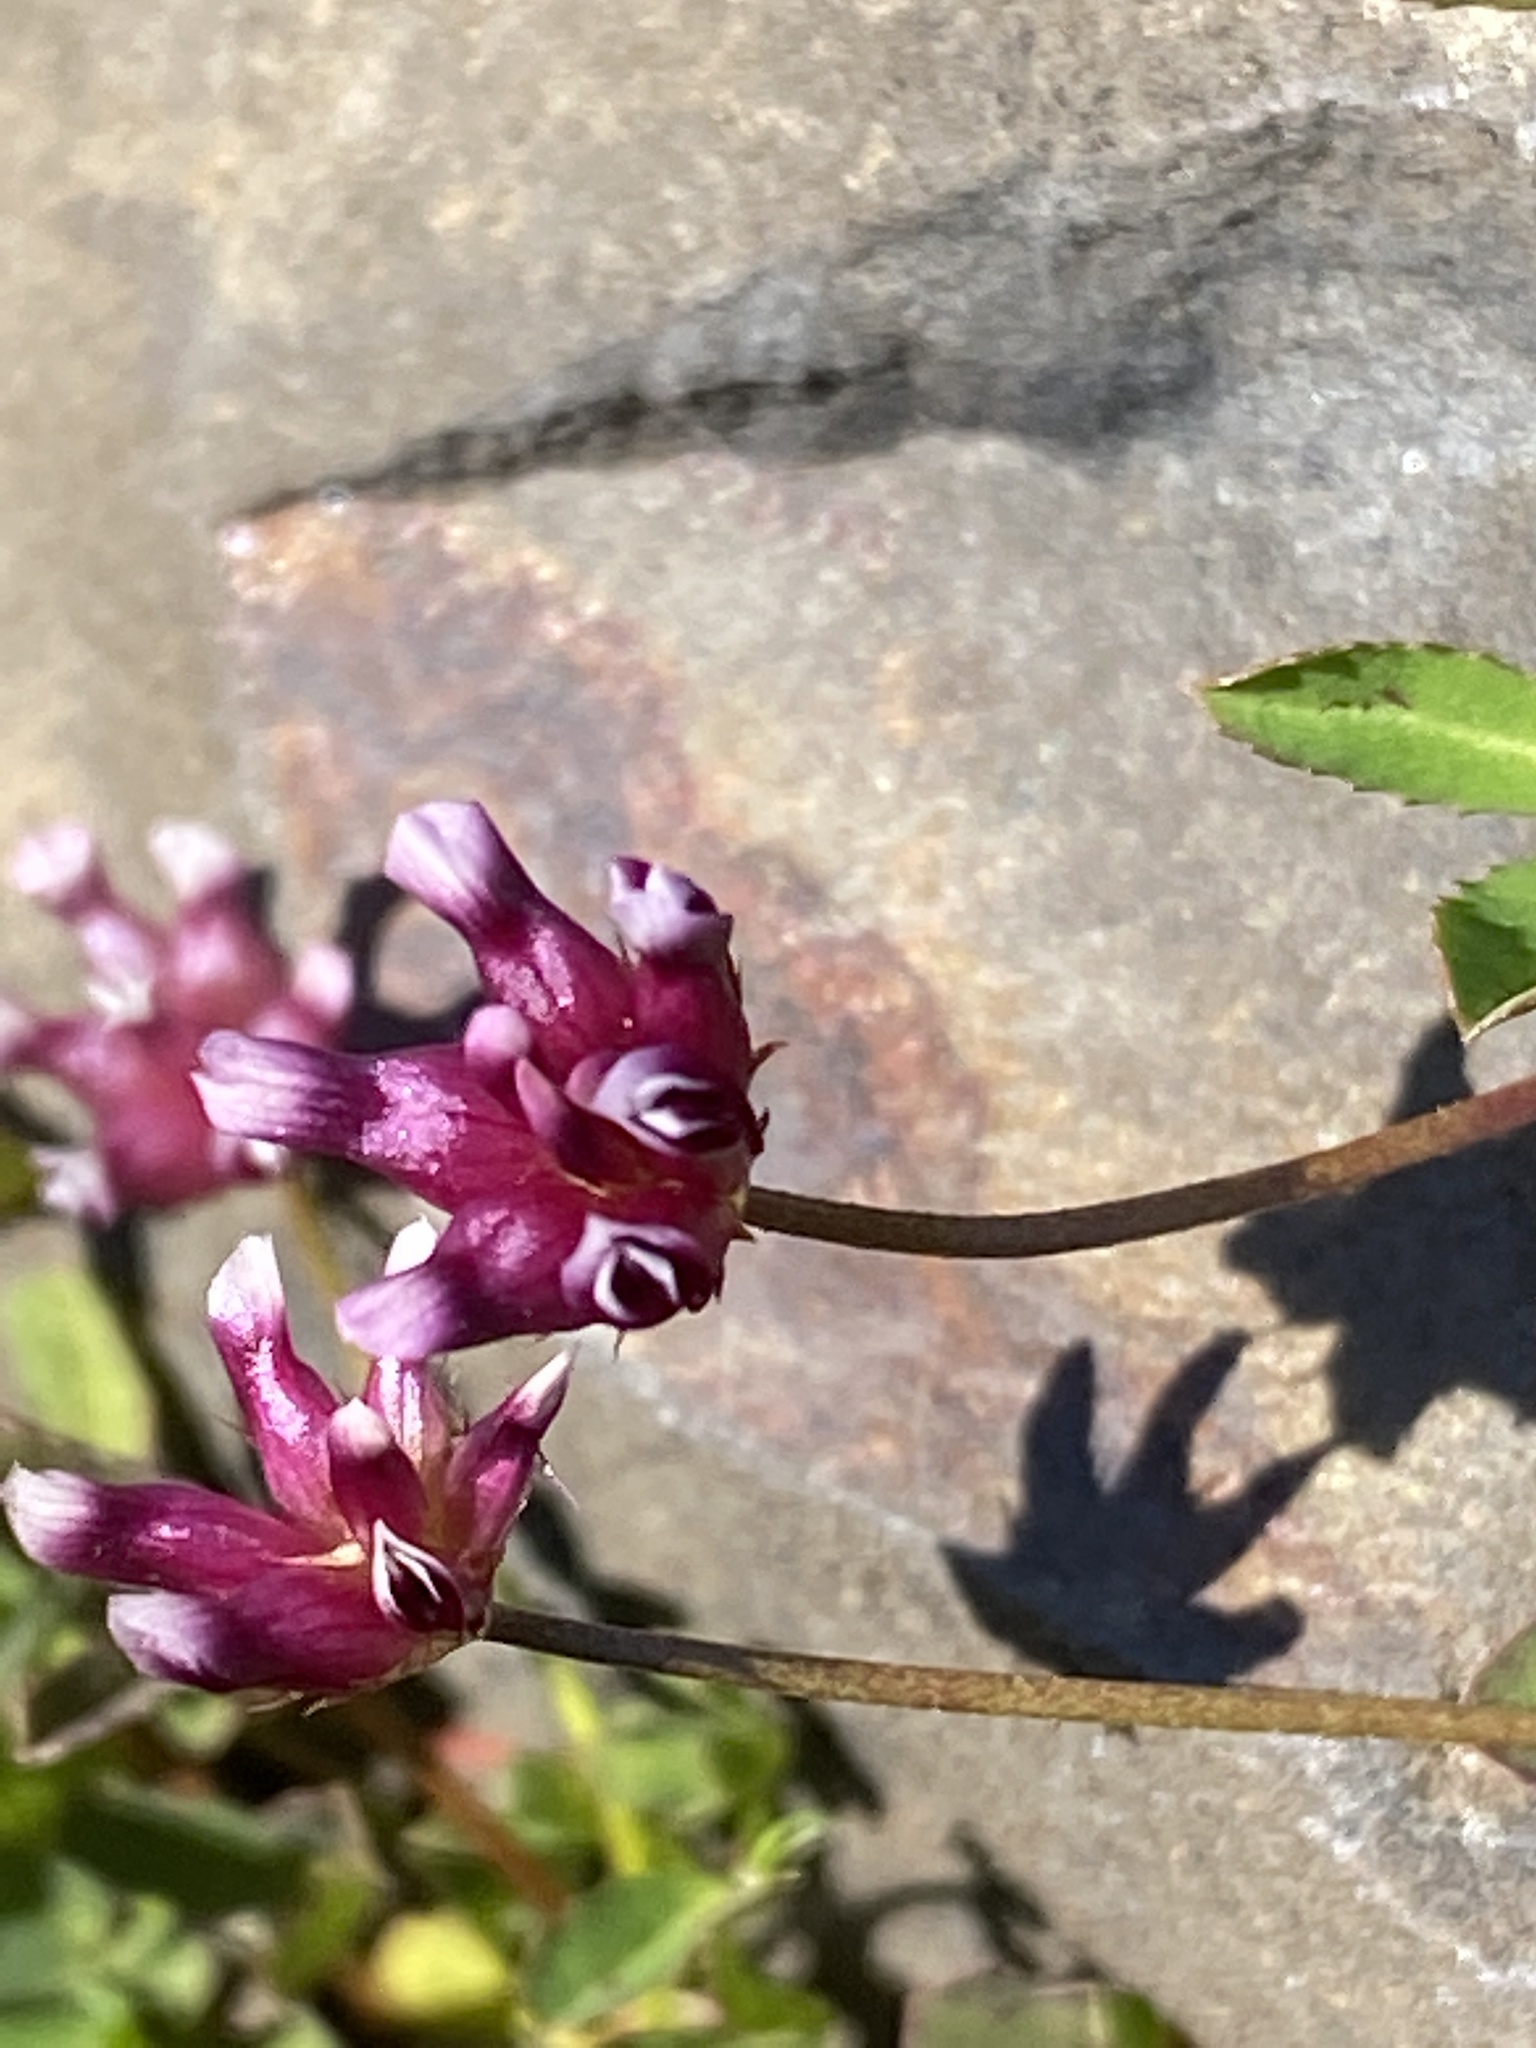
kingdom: Plantae
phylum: Tracheophyta
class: Magnoliopsida
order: Fabales
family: Fabaceae
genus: Trifolium
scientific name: Trifolium depauperatum
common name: Poverty clover
